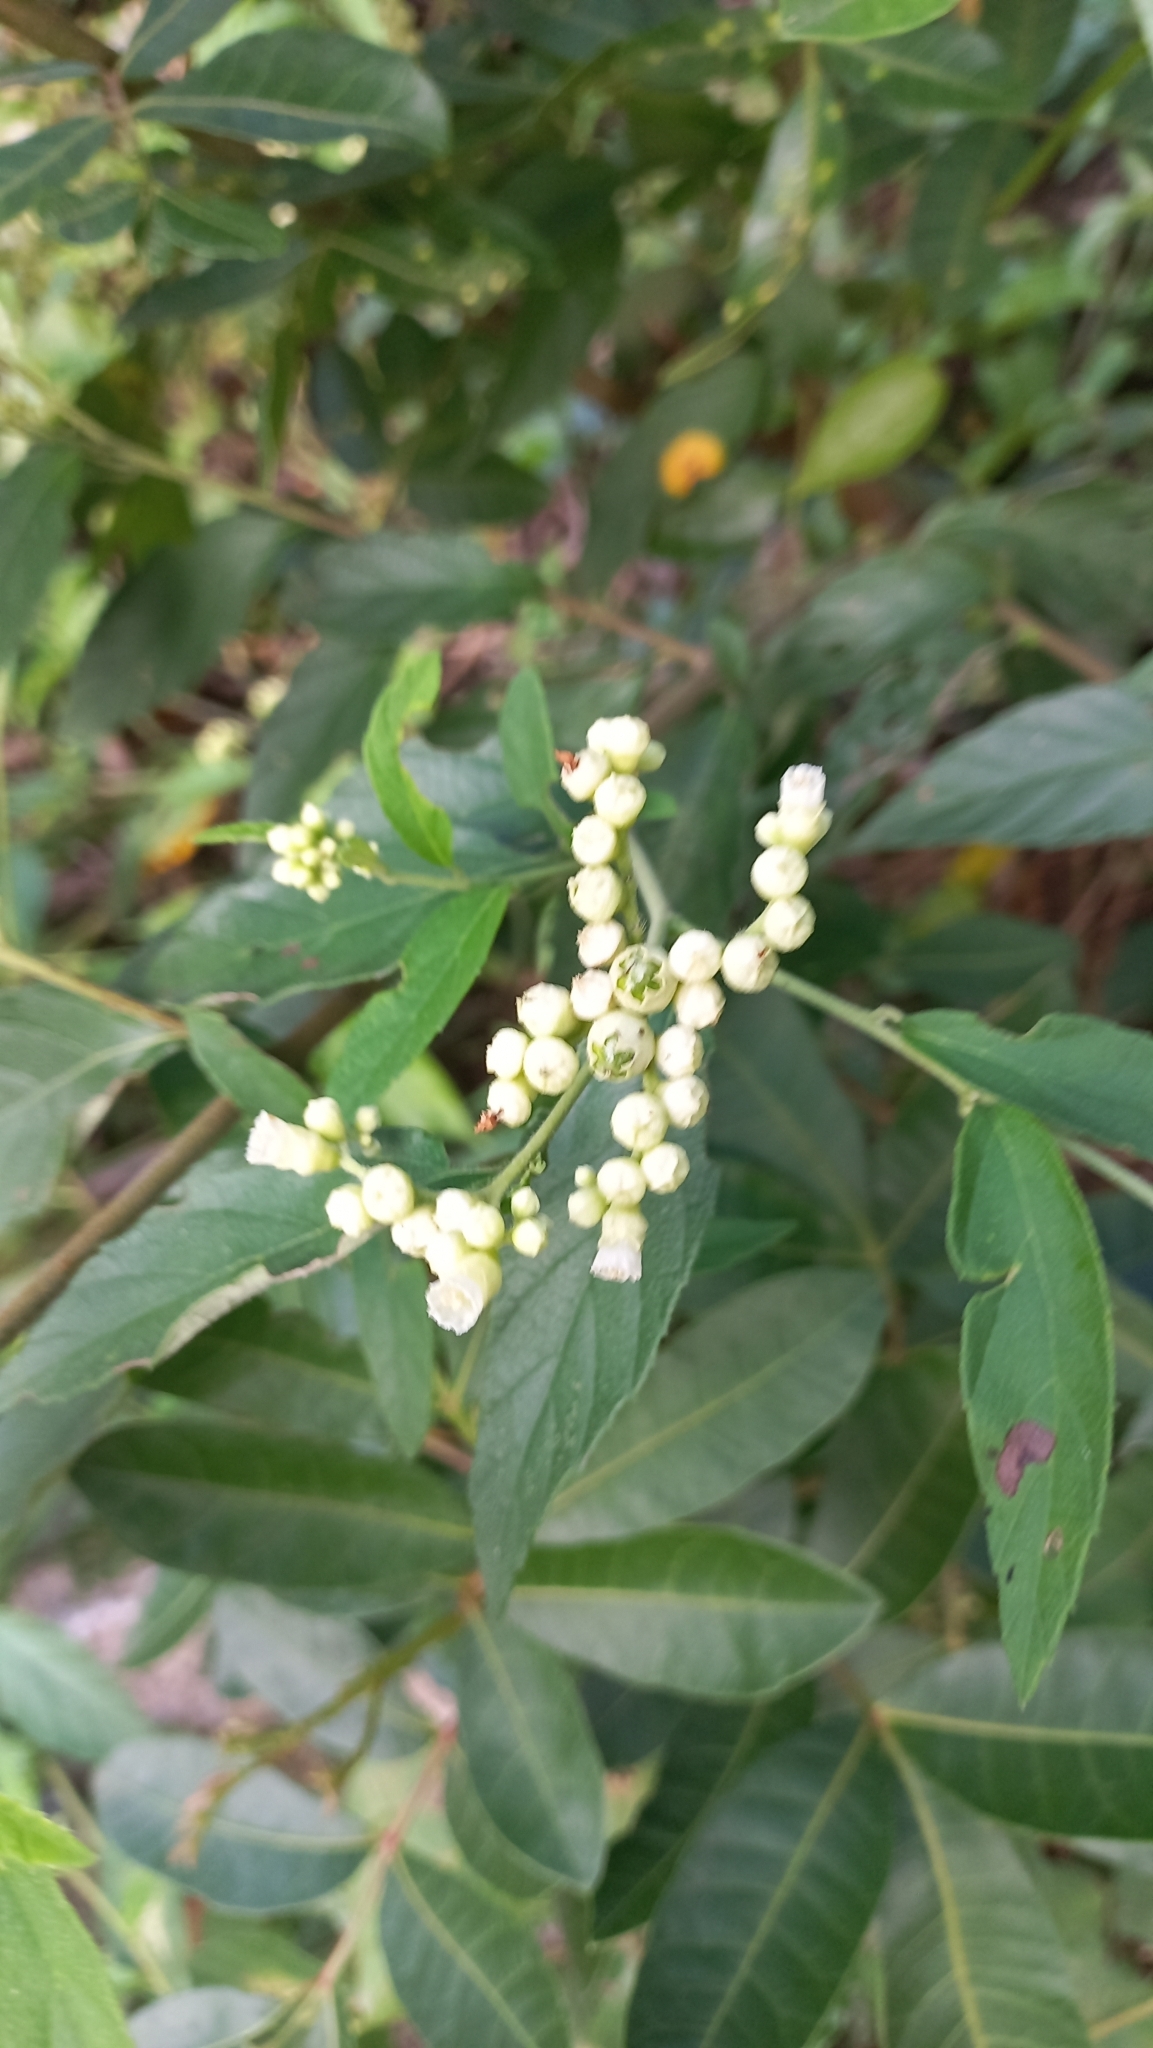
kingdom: Plantae
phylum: Tracheophyta
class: Magnoliopsida
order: Boraginales
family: Cordiaceae
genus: Varronia
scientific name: Varronia polycephala
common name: Black-sage
